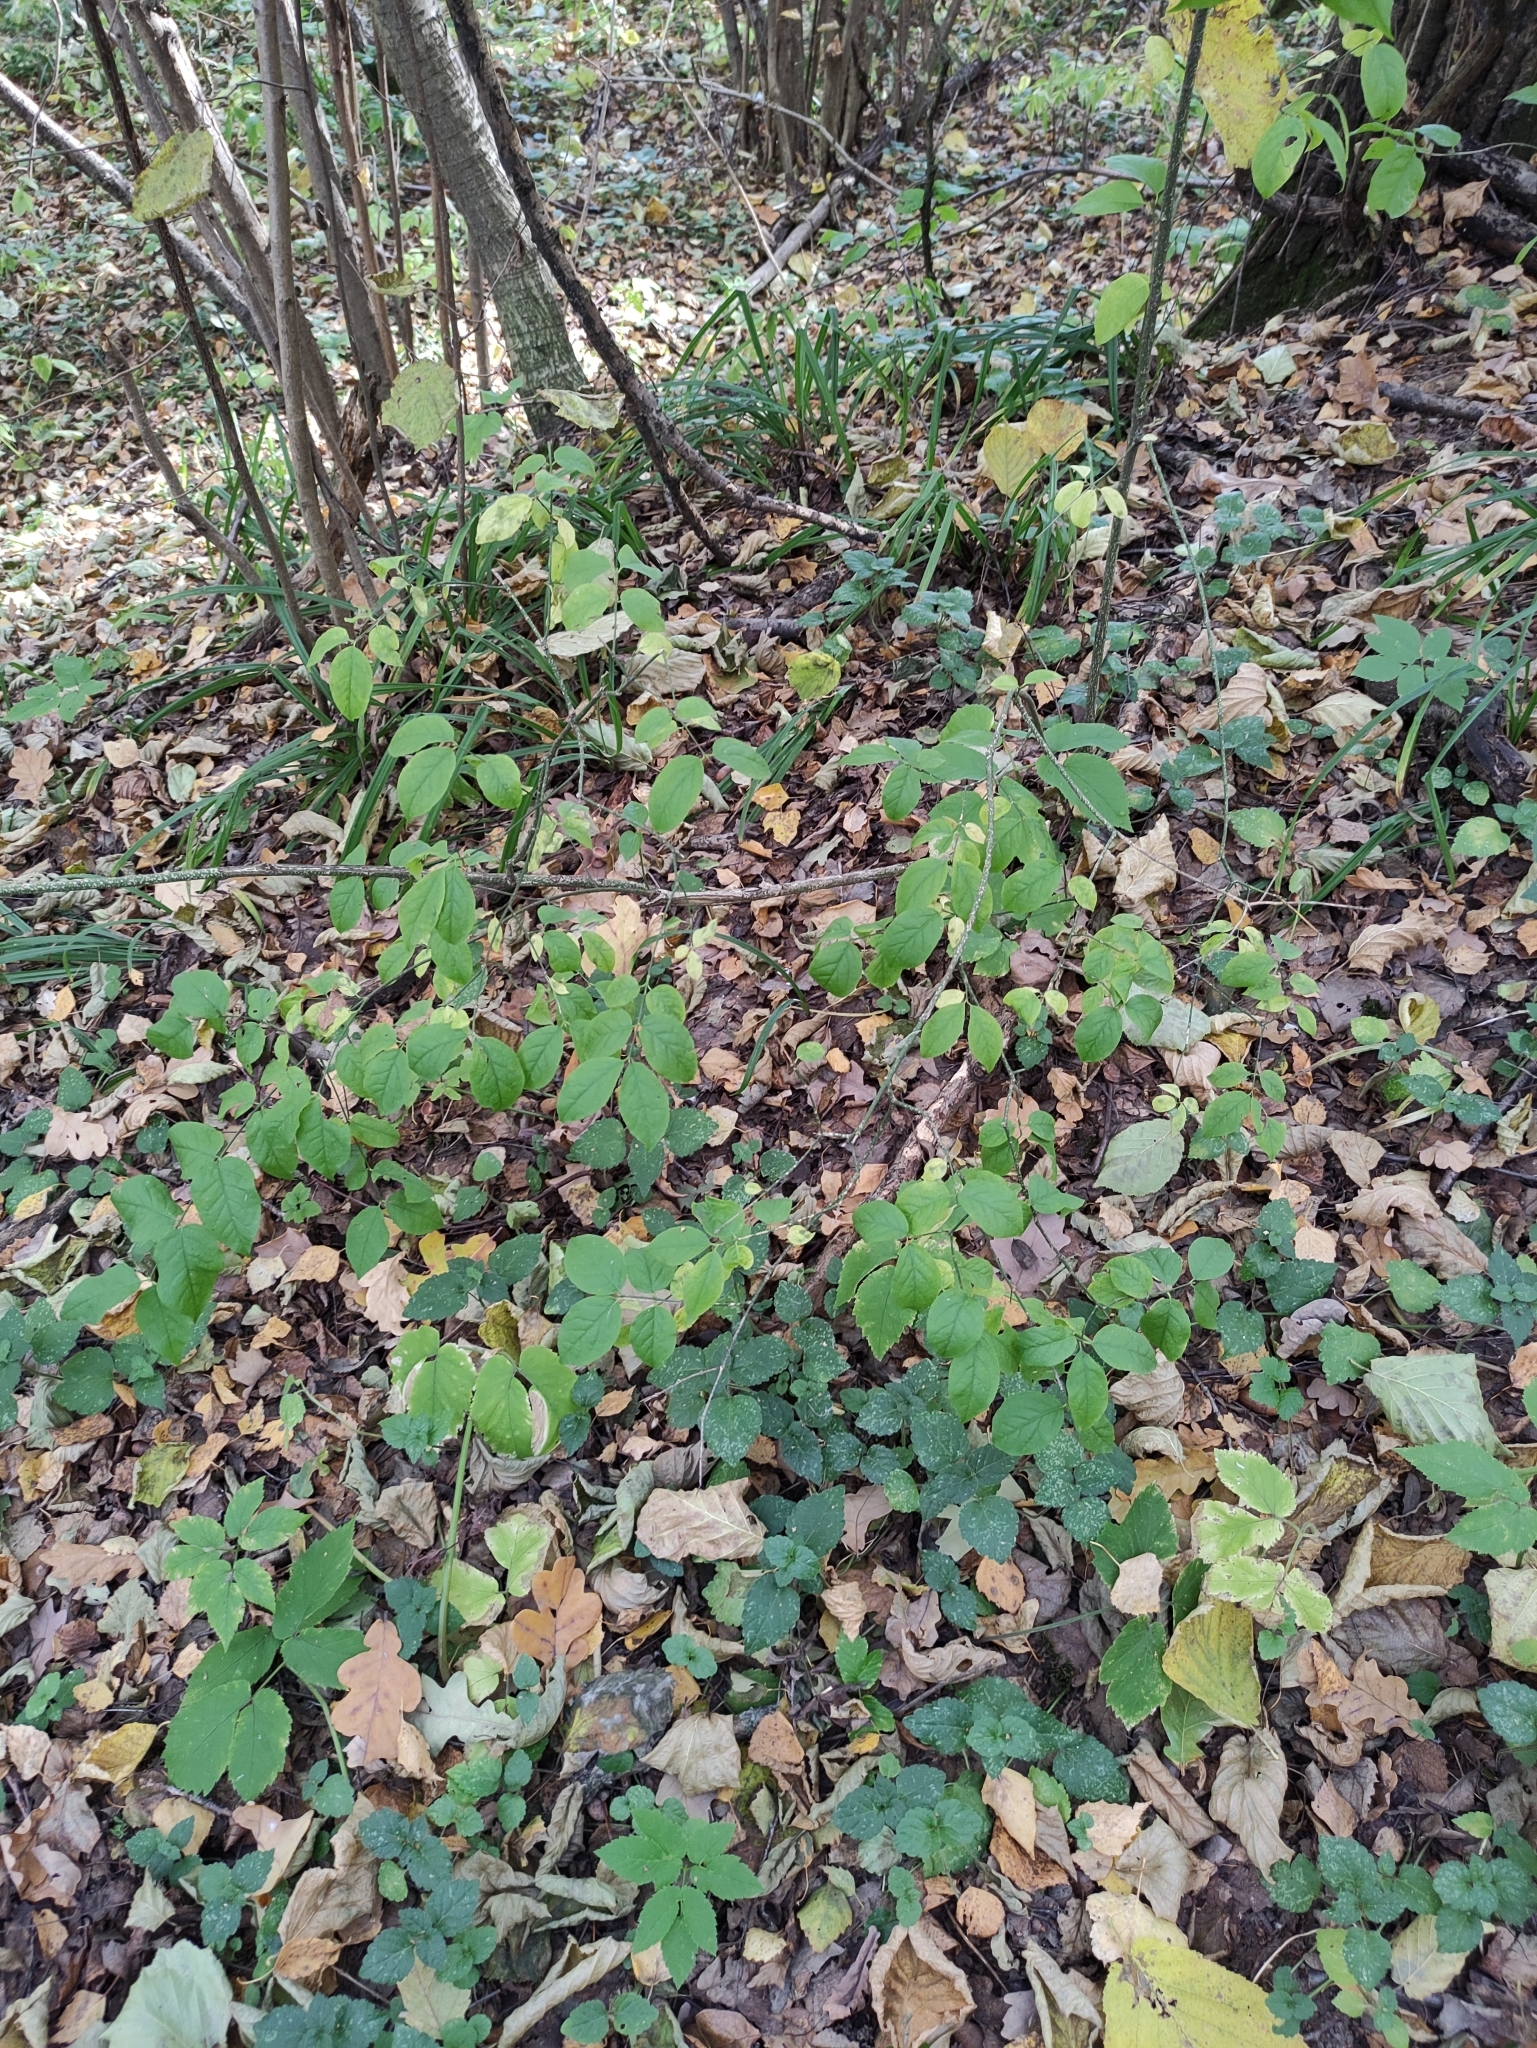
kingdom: Plantae
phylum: Tracheophyta
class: Magnoliopsida
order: Celastrales
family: Celastraceae
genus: Euonymus
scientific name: Euonymus verrucosus
